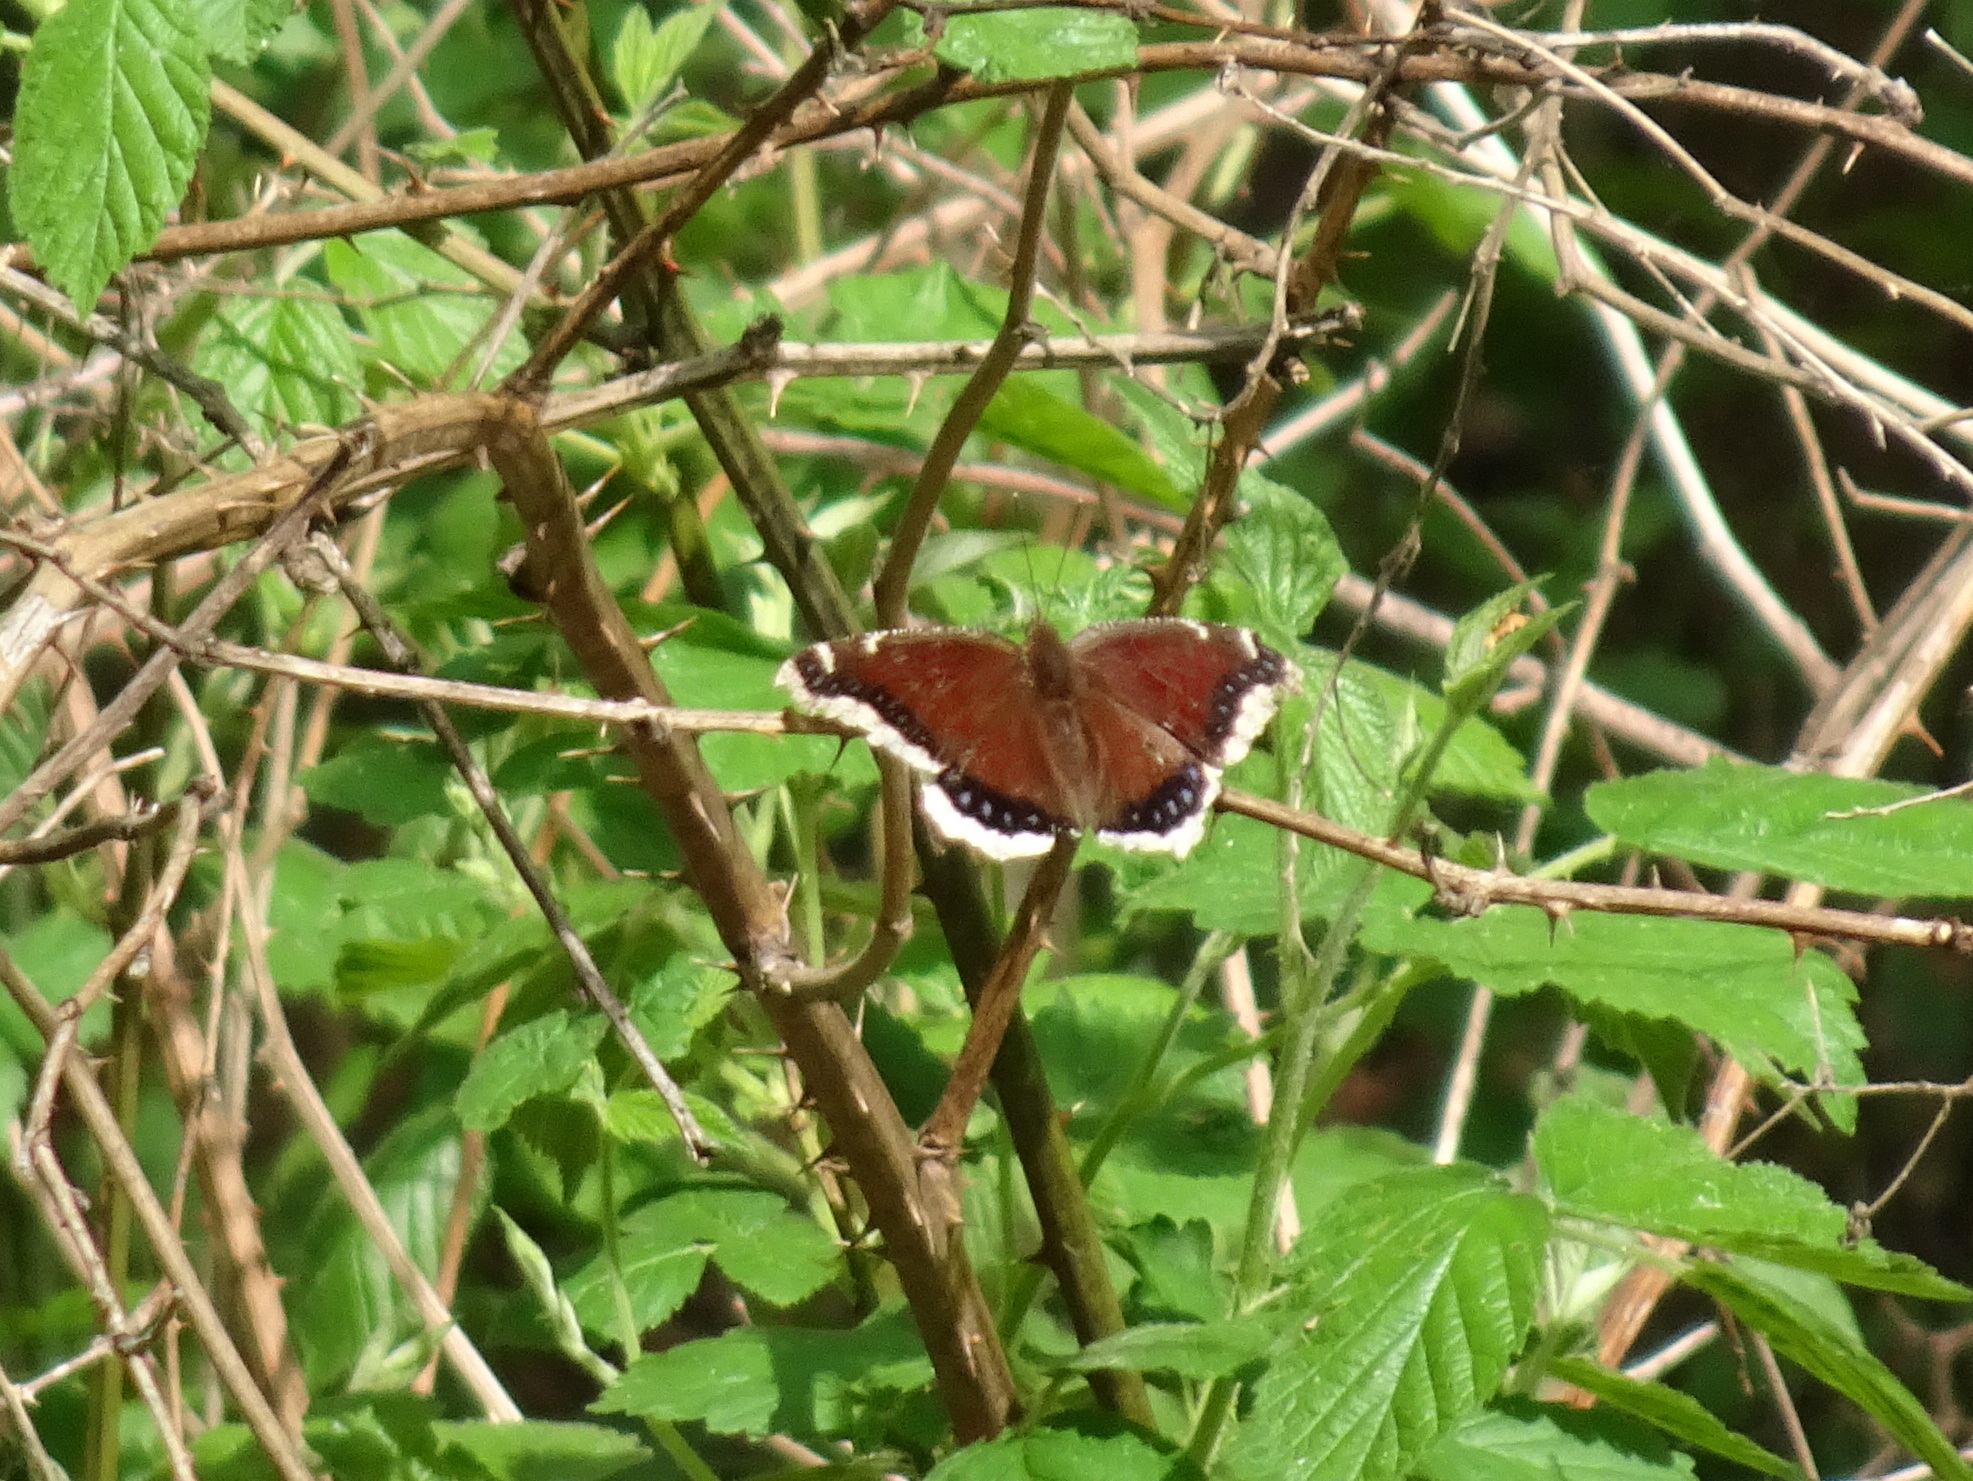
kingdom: Animalia
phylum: Arthropoda
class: Insecta
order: Lepidoptera
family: Nymphalidae
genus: Nymphalis
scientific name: Nymphalis antiopa
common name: Camberwell beauty
